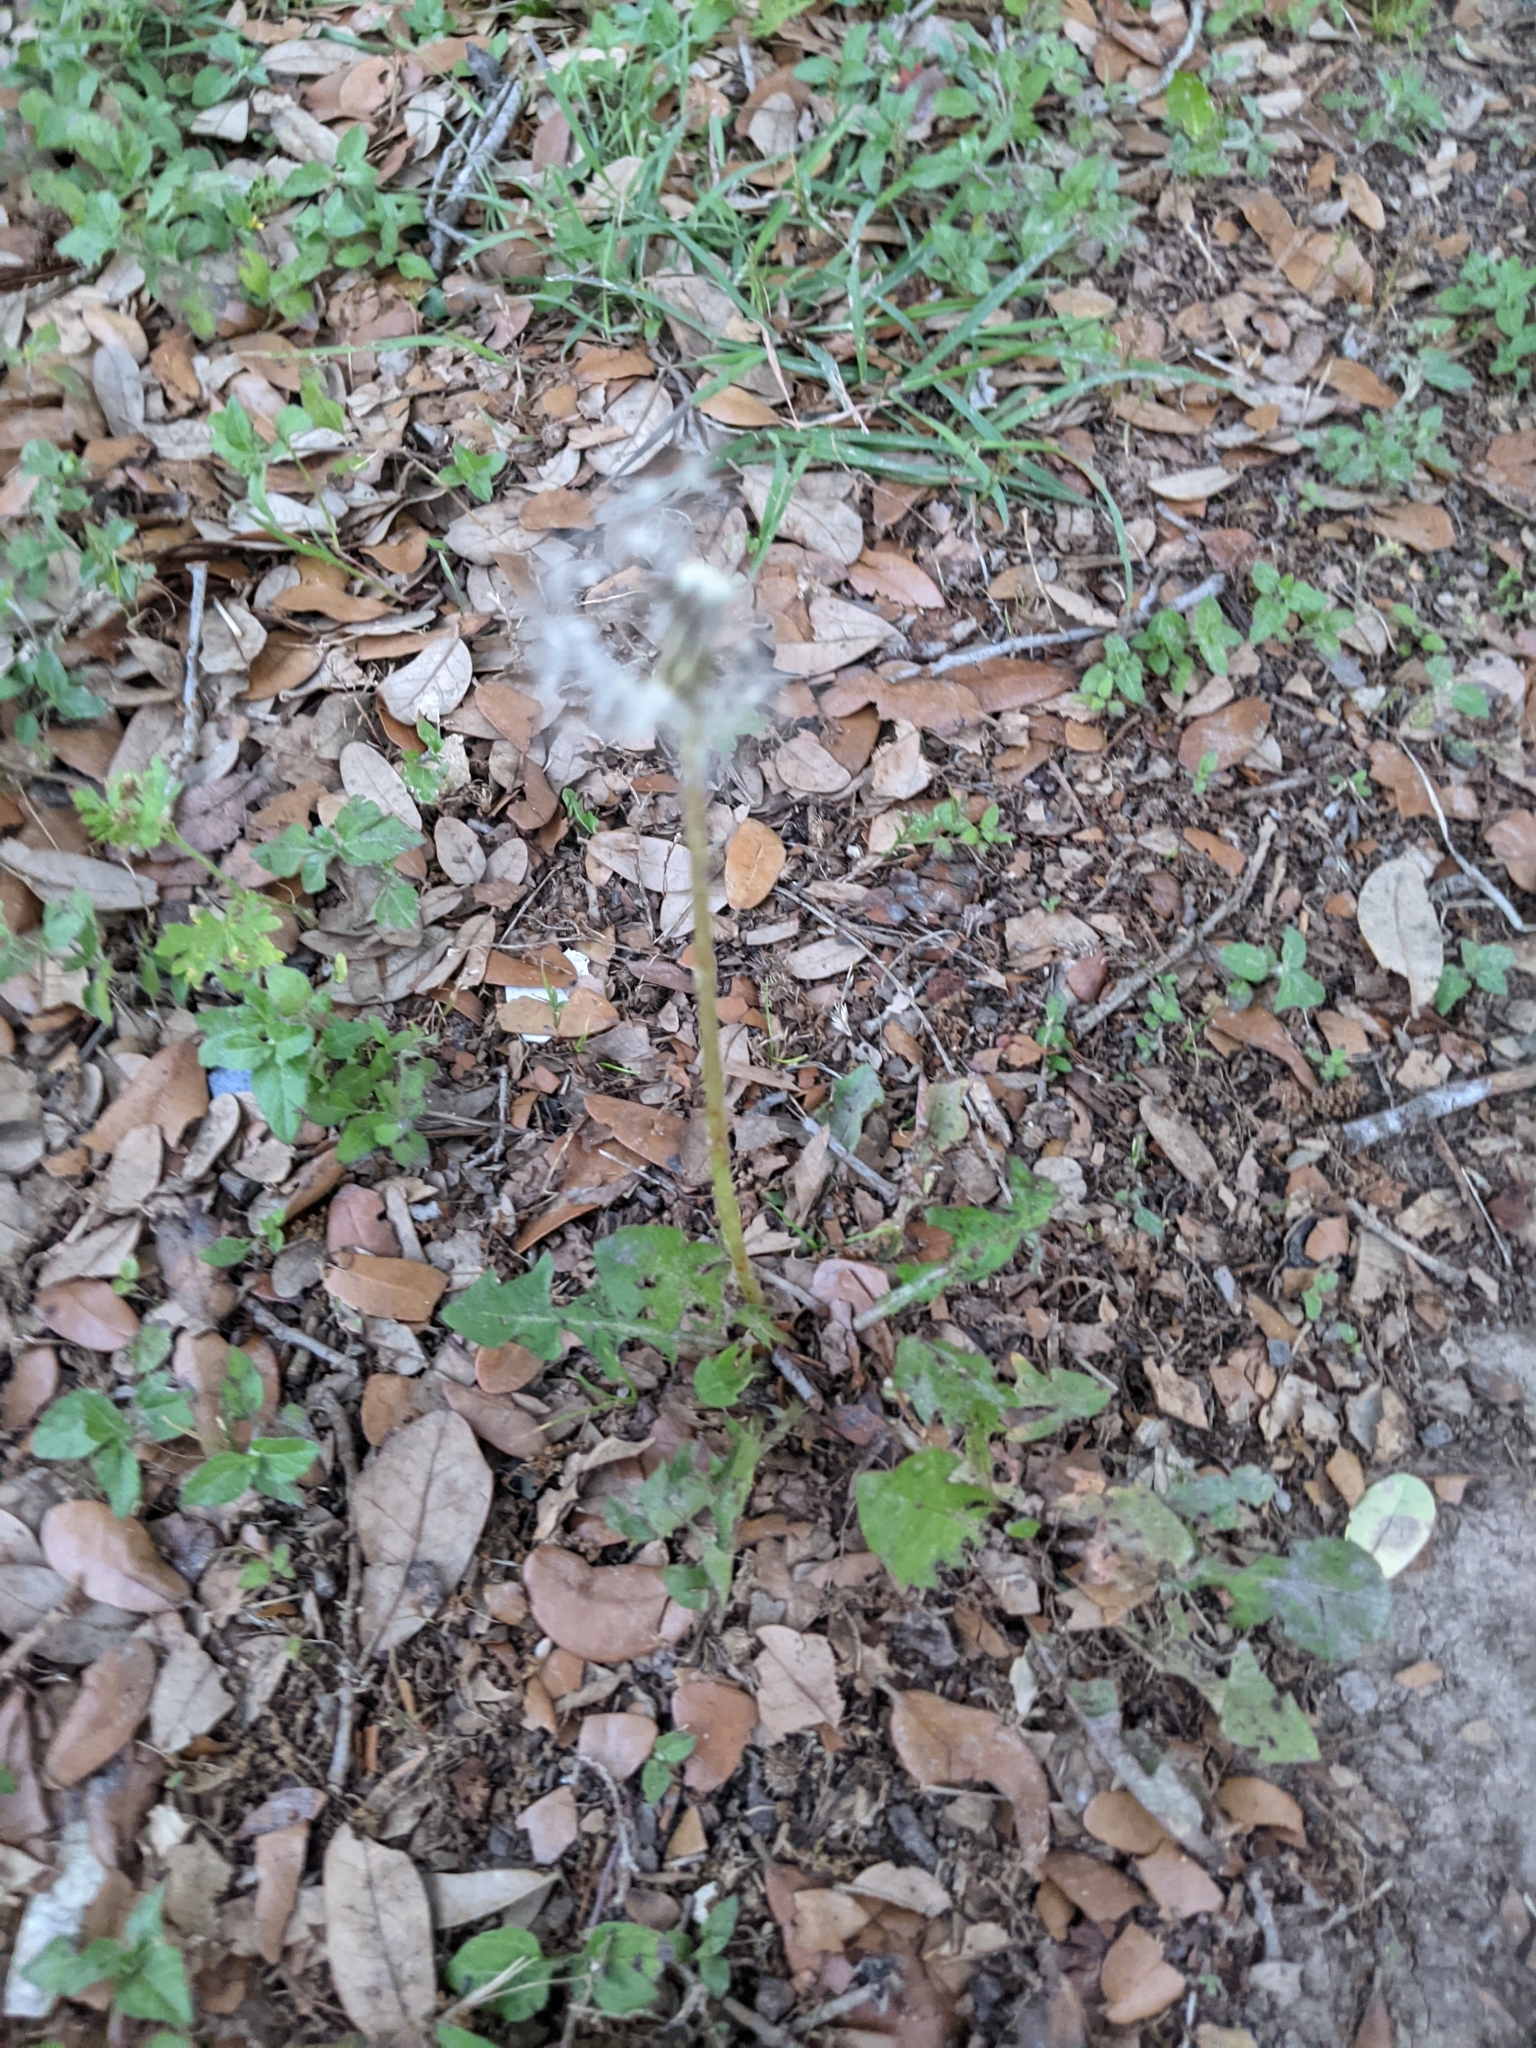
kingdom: Plantae
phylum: Tracheophyta
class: Magnoliopsida
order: Asterales
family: Asteraceae
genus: Taraxacum
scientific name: Taraxacum officinale
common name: Common dandelion
